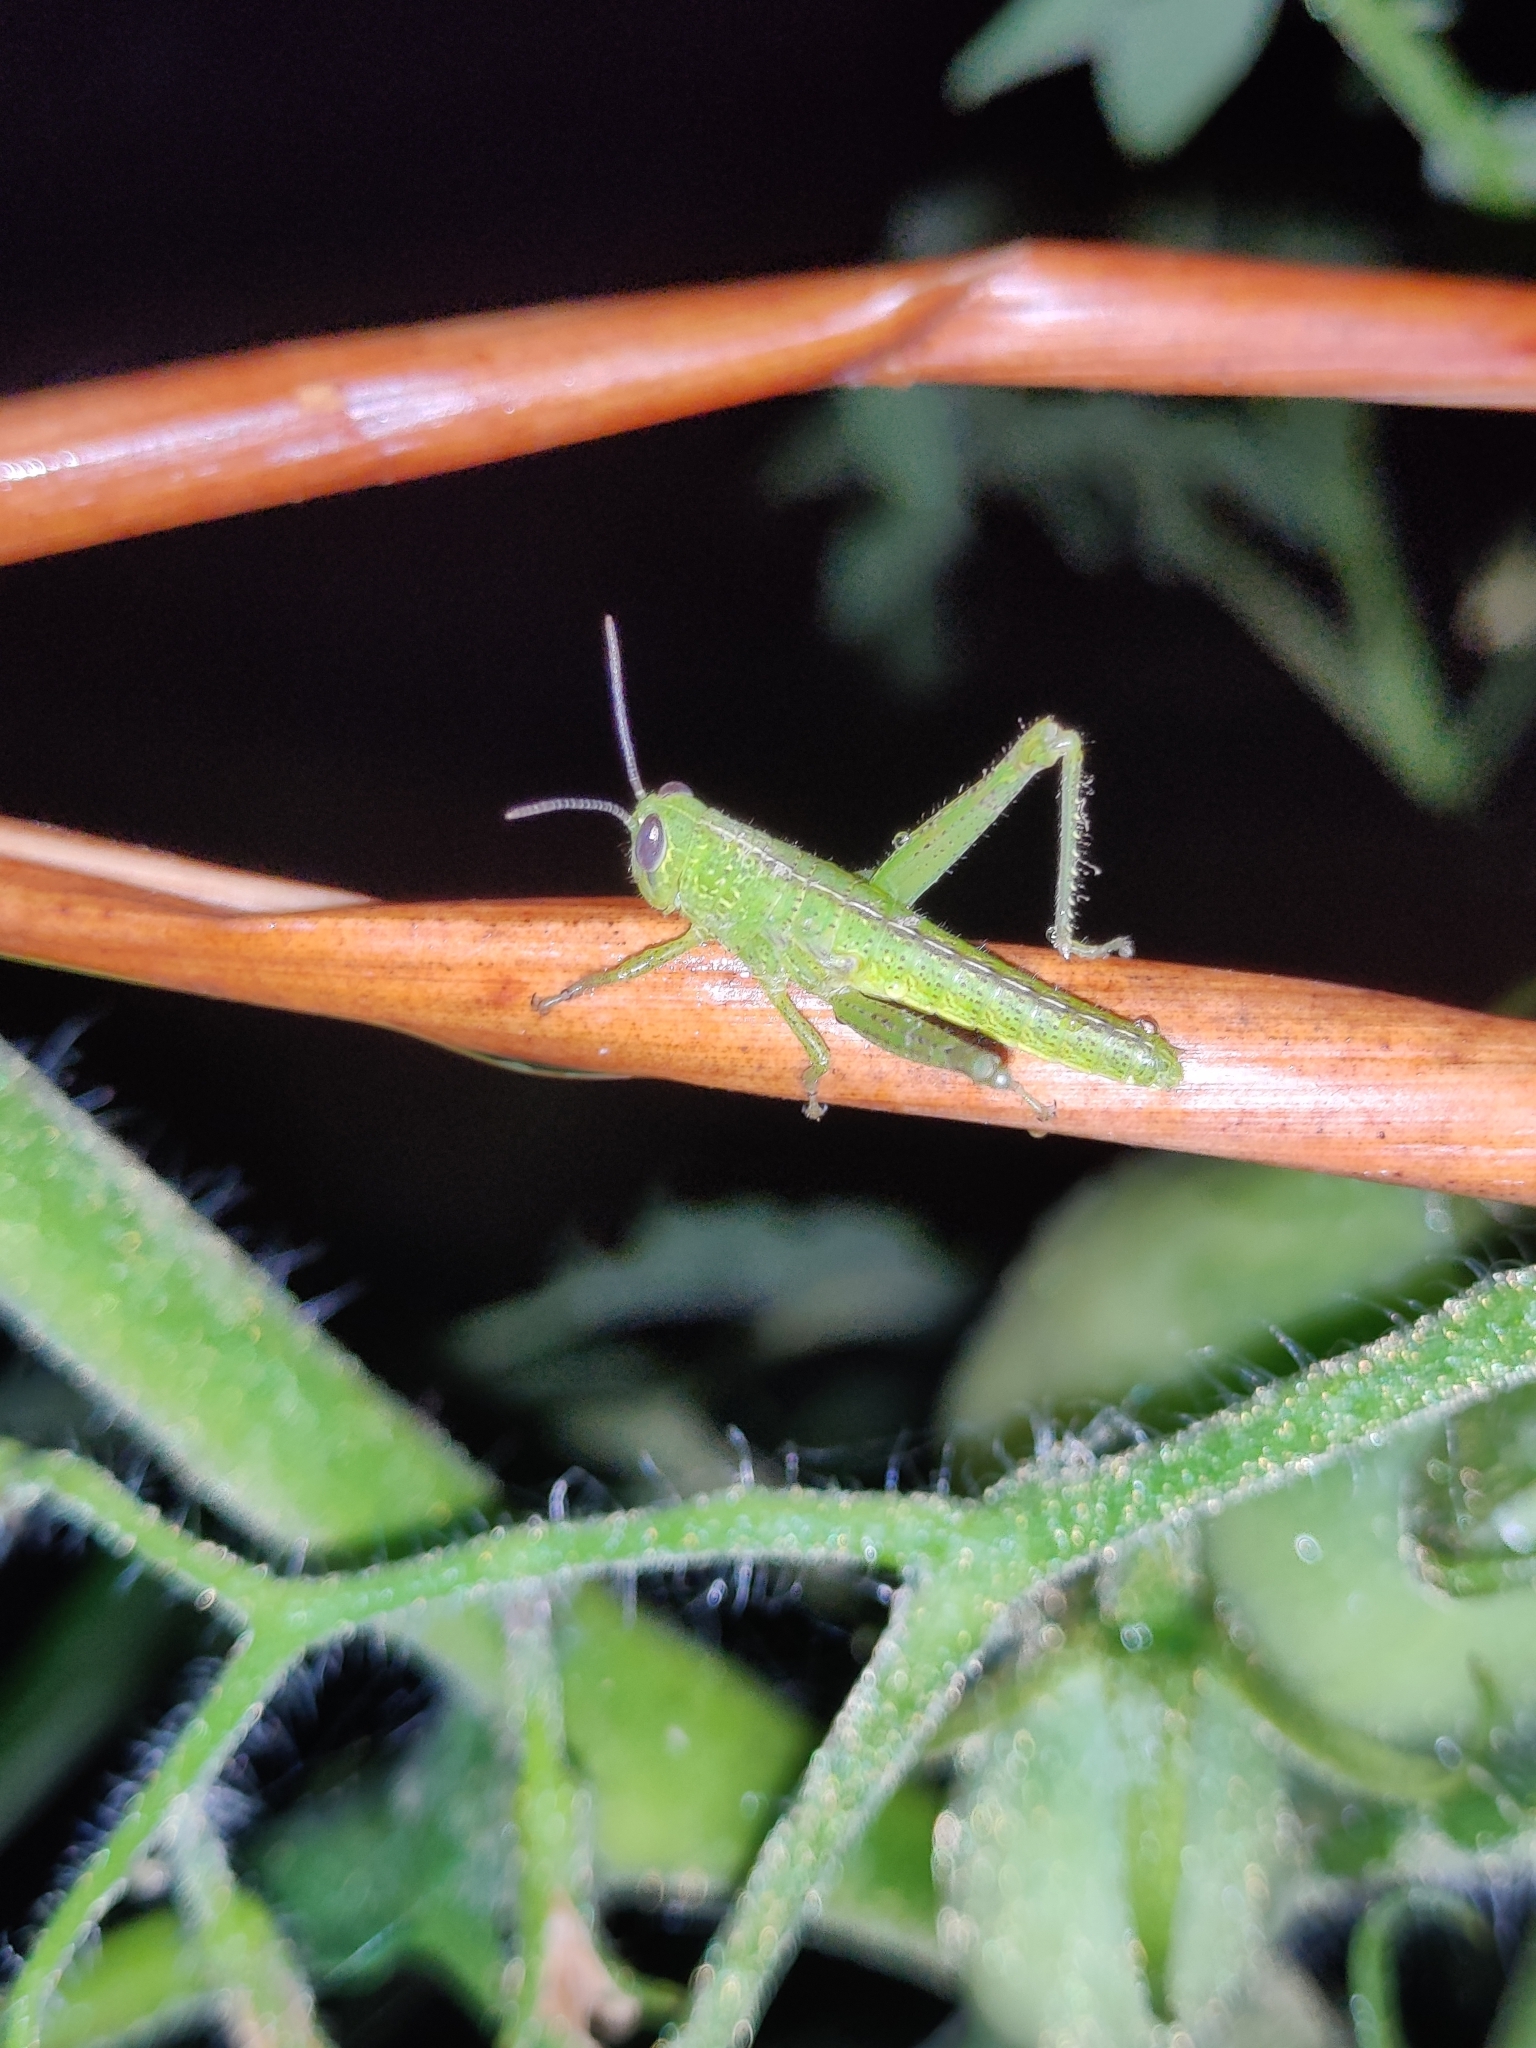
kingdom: Animalia
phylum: Arthropoda
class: Insecta
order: Orthoptera
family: Acrididae
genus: Valanga
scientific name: Valanga nigricornis
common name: Javanese bird grasshopper
